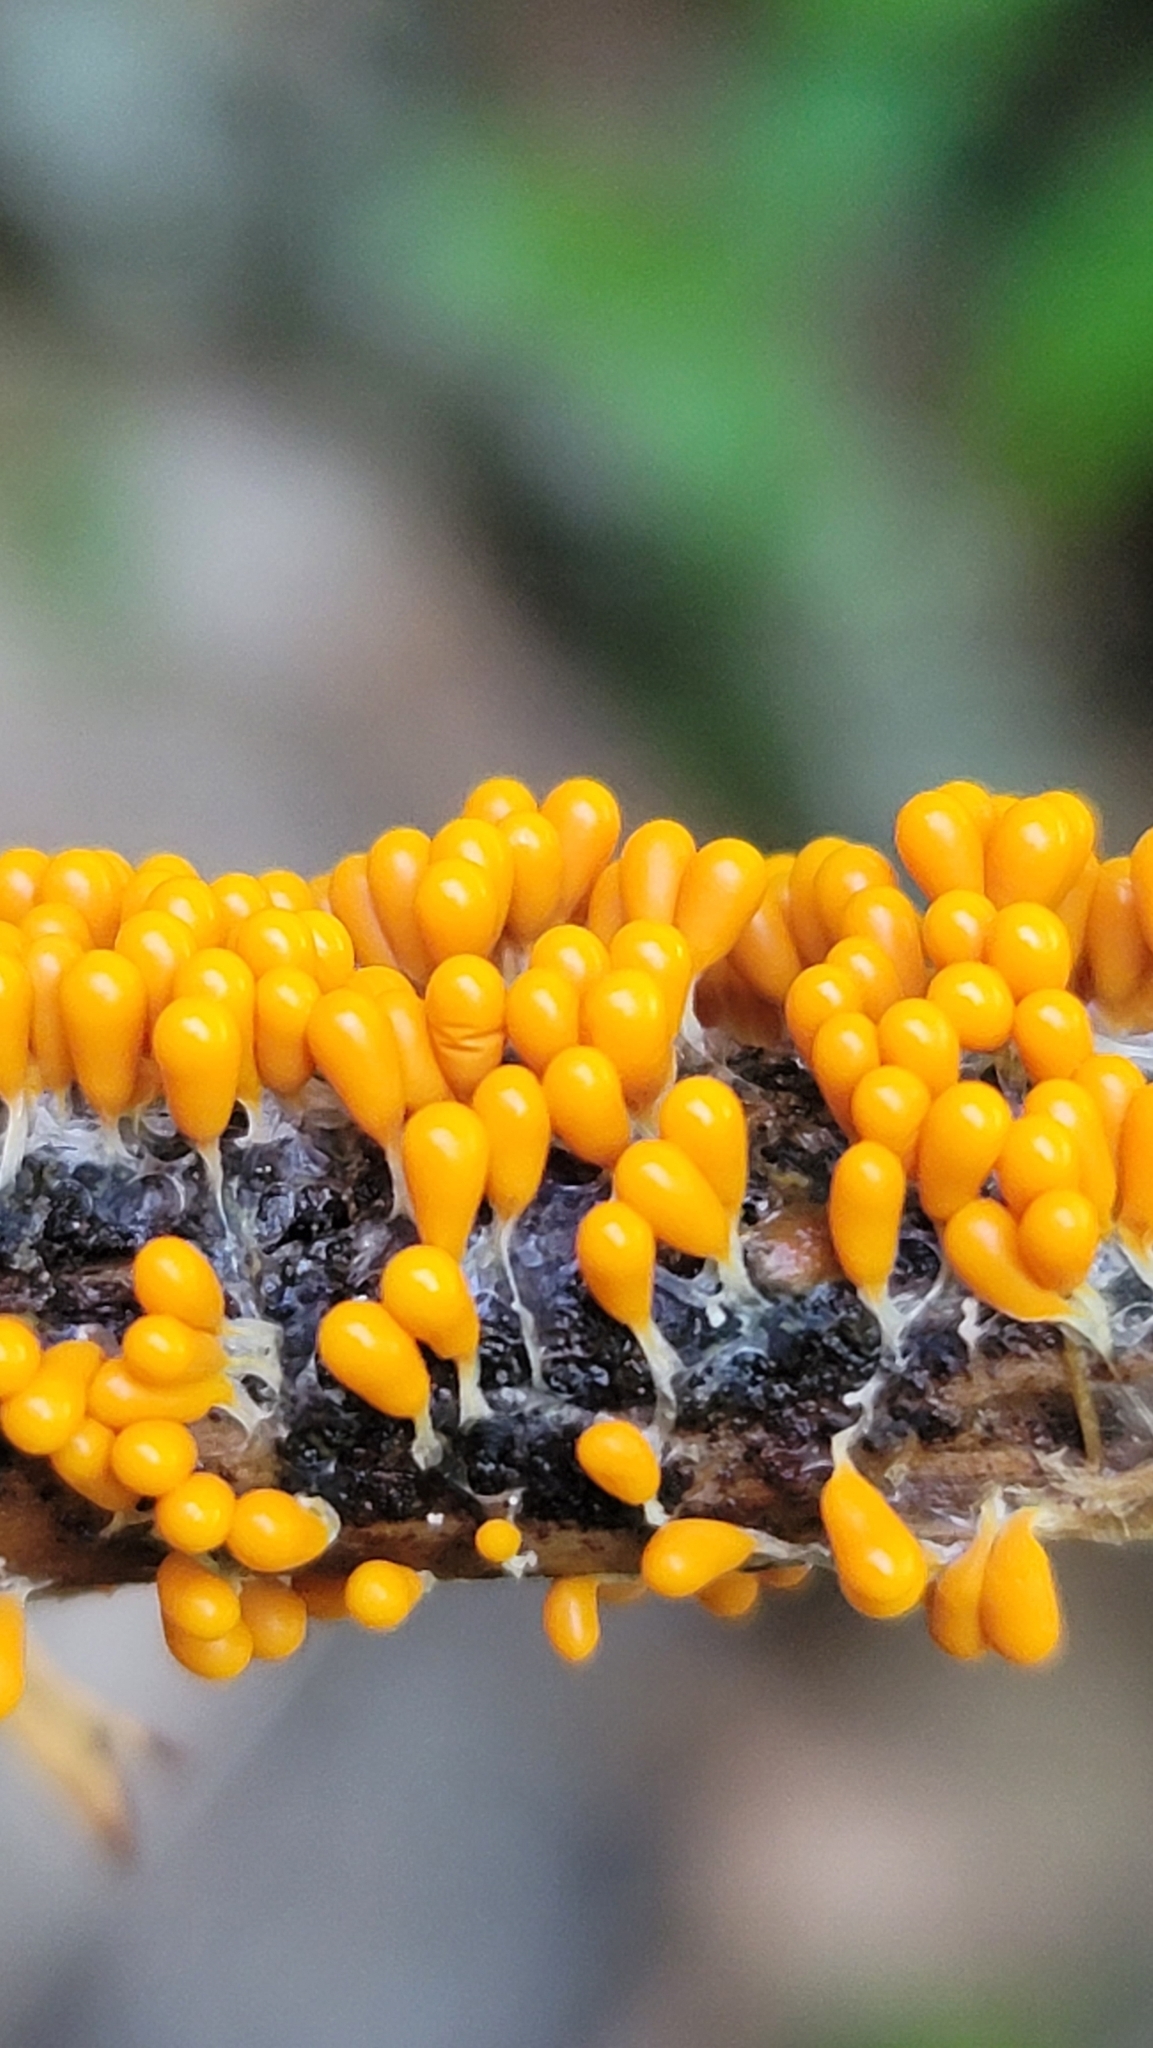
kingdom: Protozoa
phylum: Mycetozoa
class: Myxomycetes
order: Physarales
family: Physaraceae
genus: Leocarpus
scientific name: Leocarpus fragilis
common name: Insect-egg slime
